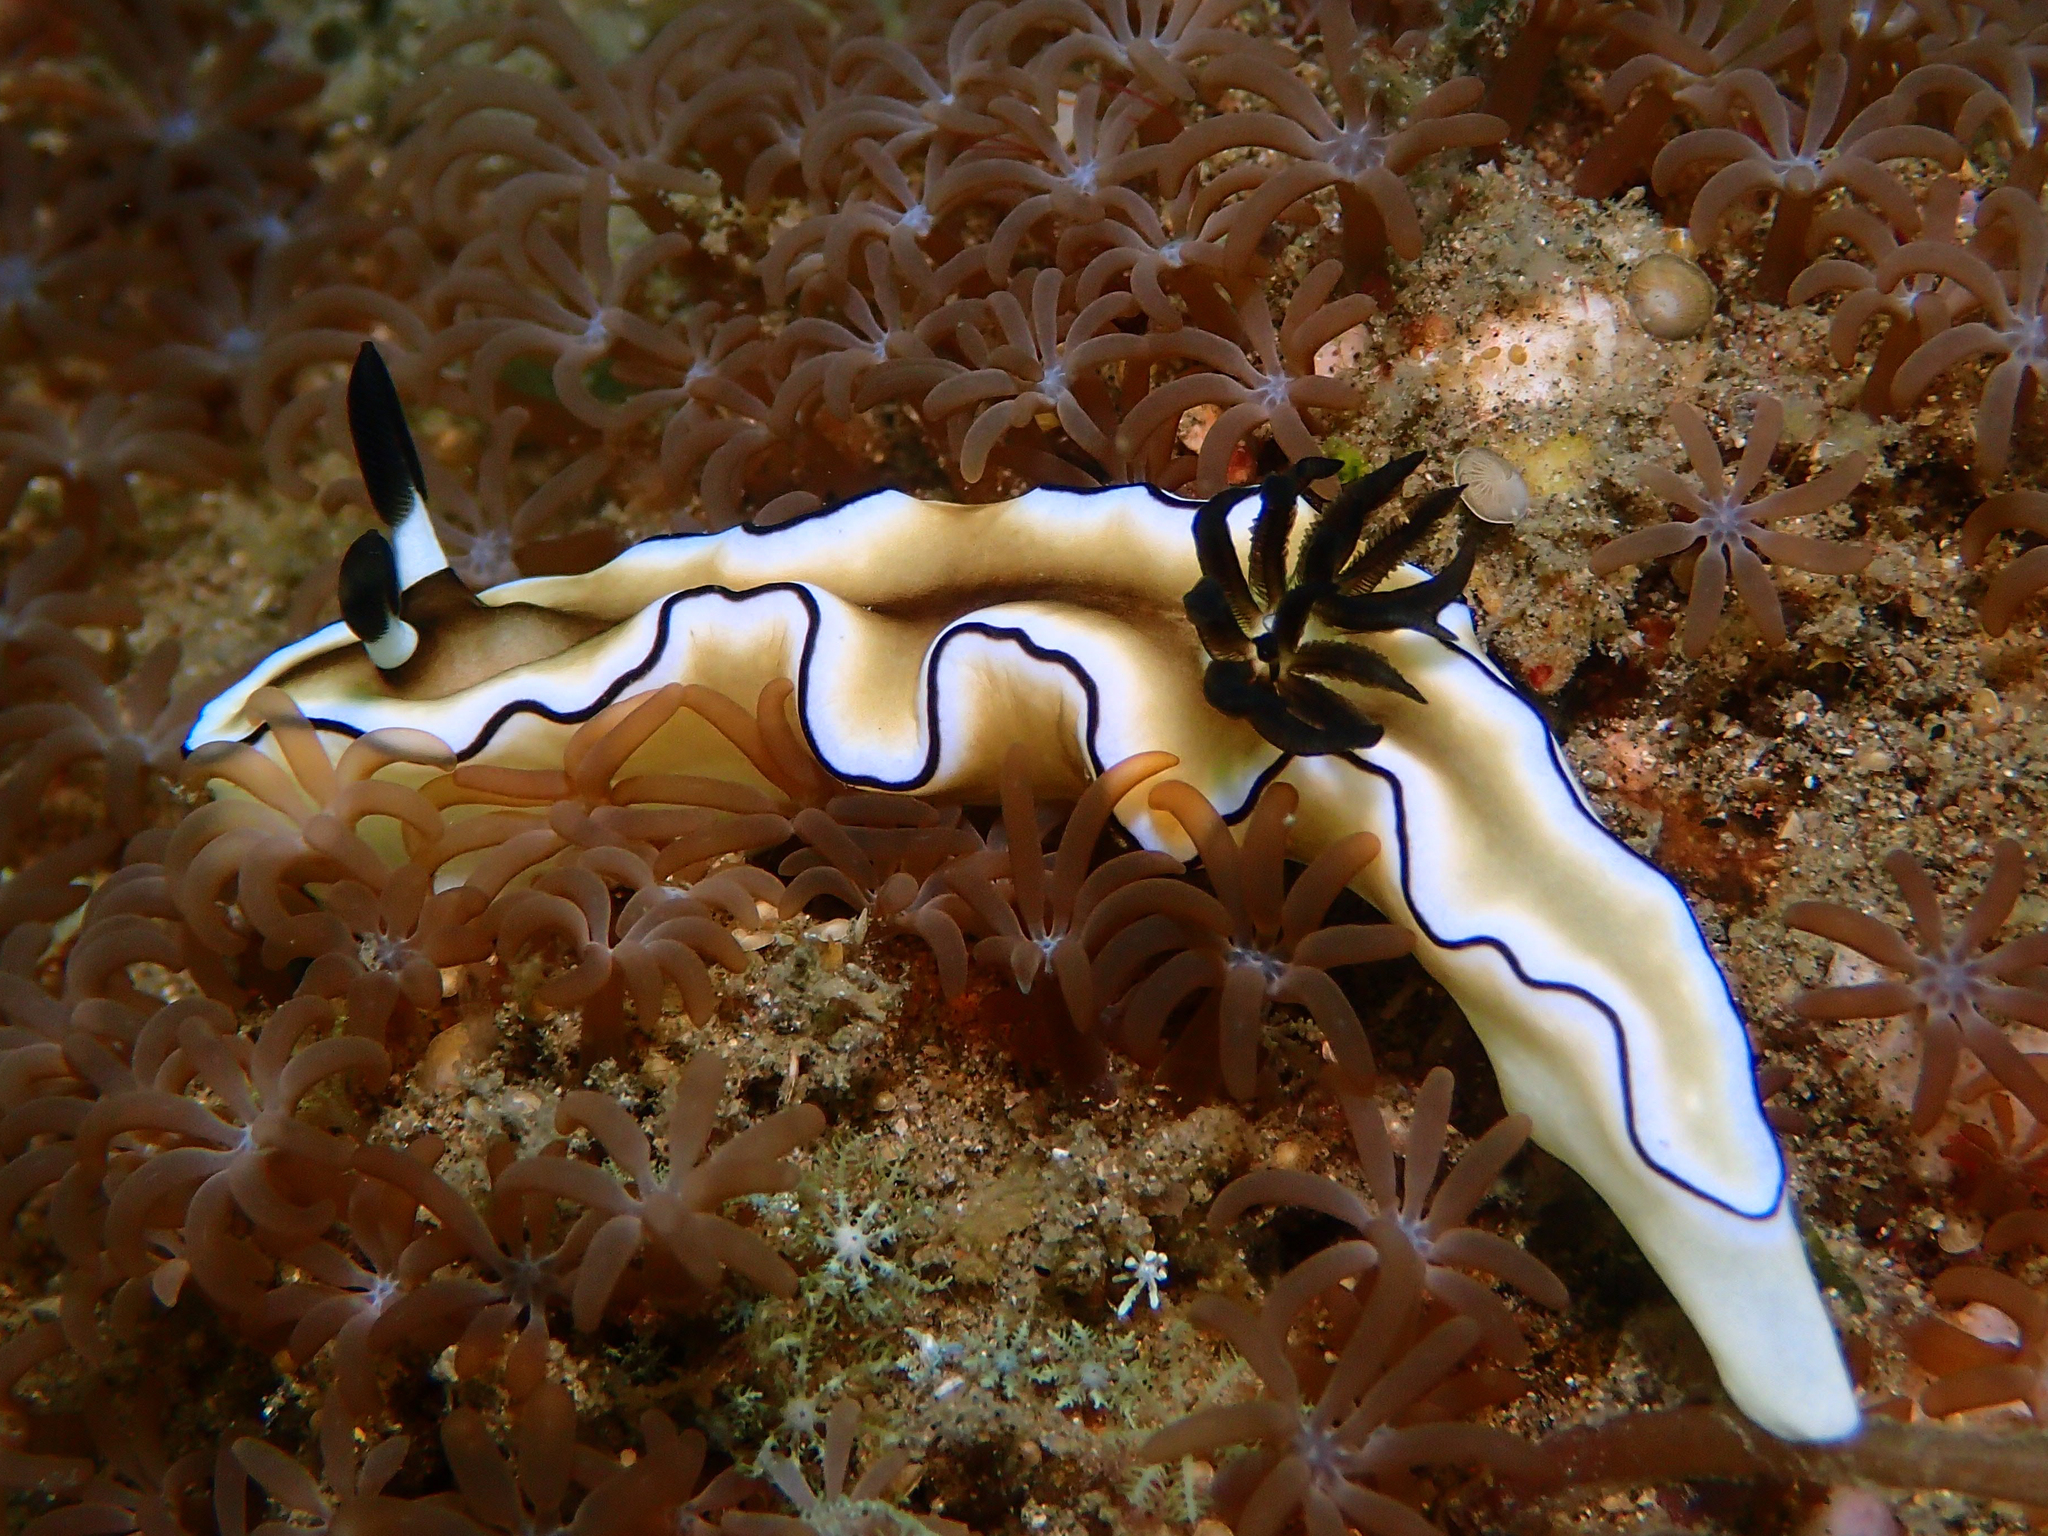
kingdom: Animalia
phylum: Mollusca
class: Gastropoda
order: Nudibranchia
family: Chromodorididae
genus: Doriprismatica
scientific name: Doriprismatica atromarginata
